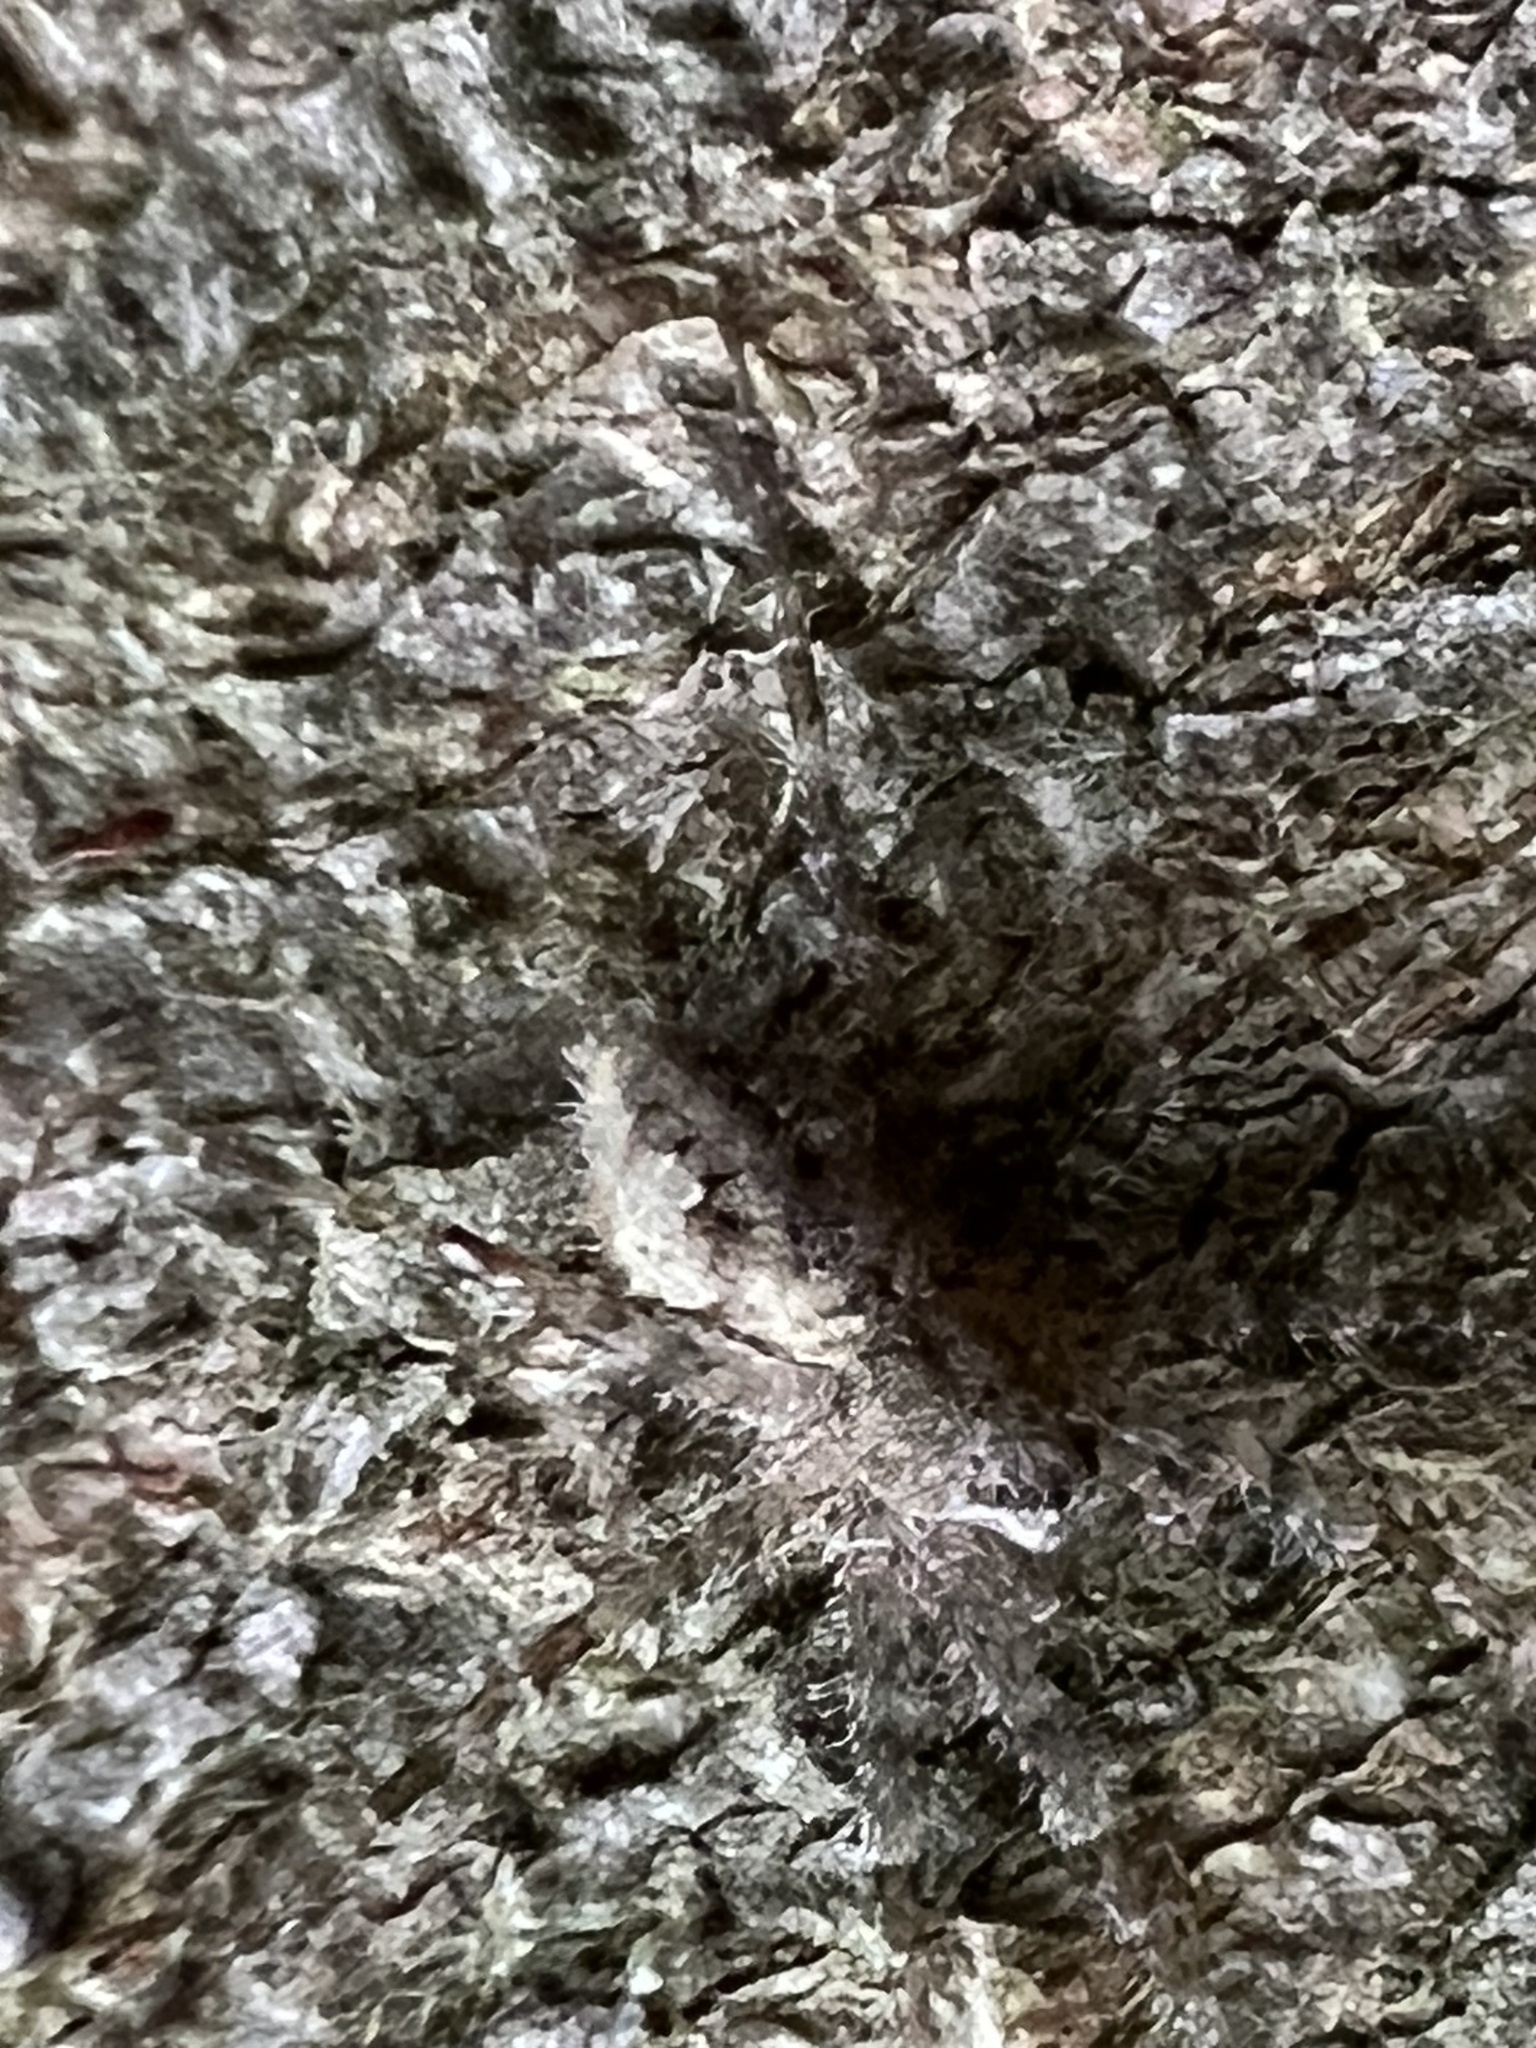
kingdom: Animalia
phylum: Arthropoda
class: Arachnida
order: Araneae
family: Pisauridae
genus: Dolomedes
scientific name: Dolomedes albineus
